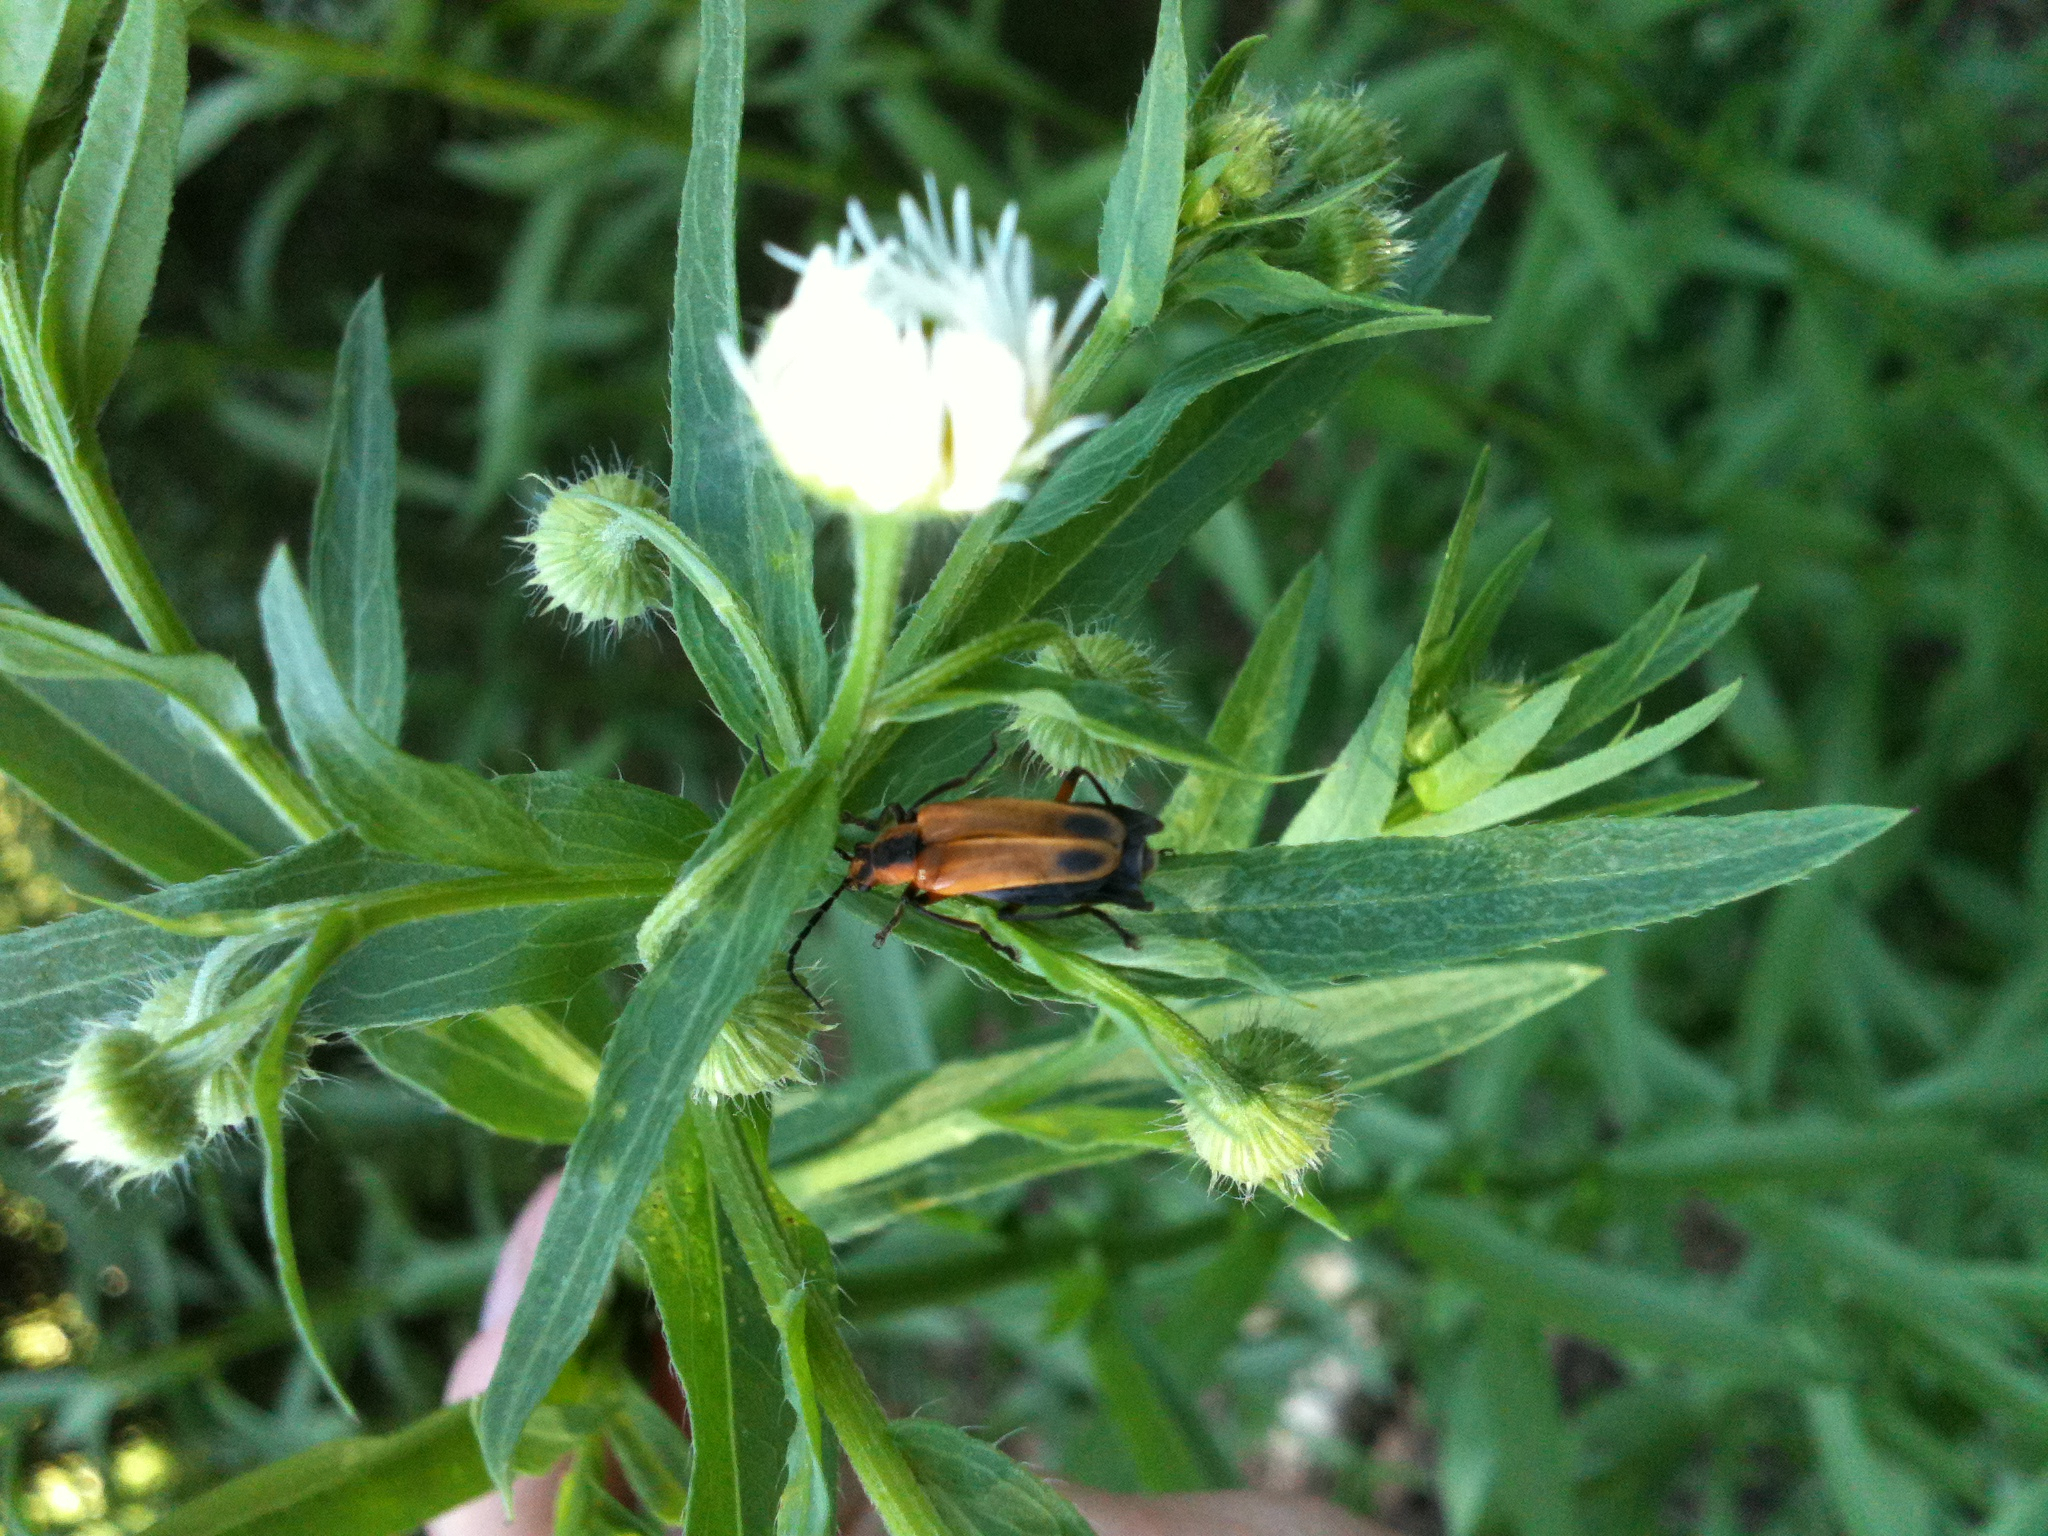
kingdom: Animalia
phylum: Arthropoda
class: Insecta
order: Coleoptera
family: Cantharidae
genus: Chauliognathus
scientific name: Chauliognathus marginatus
